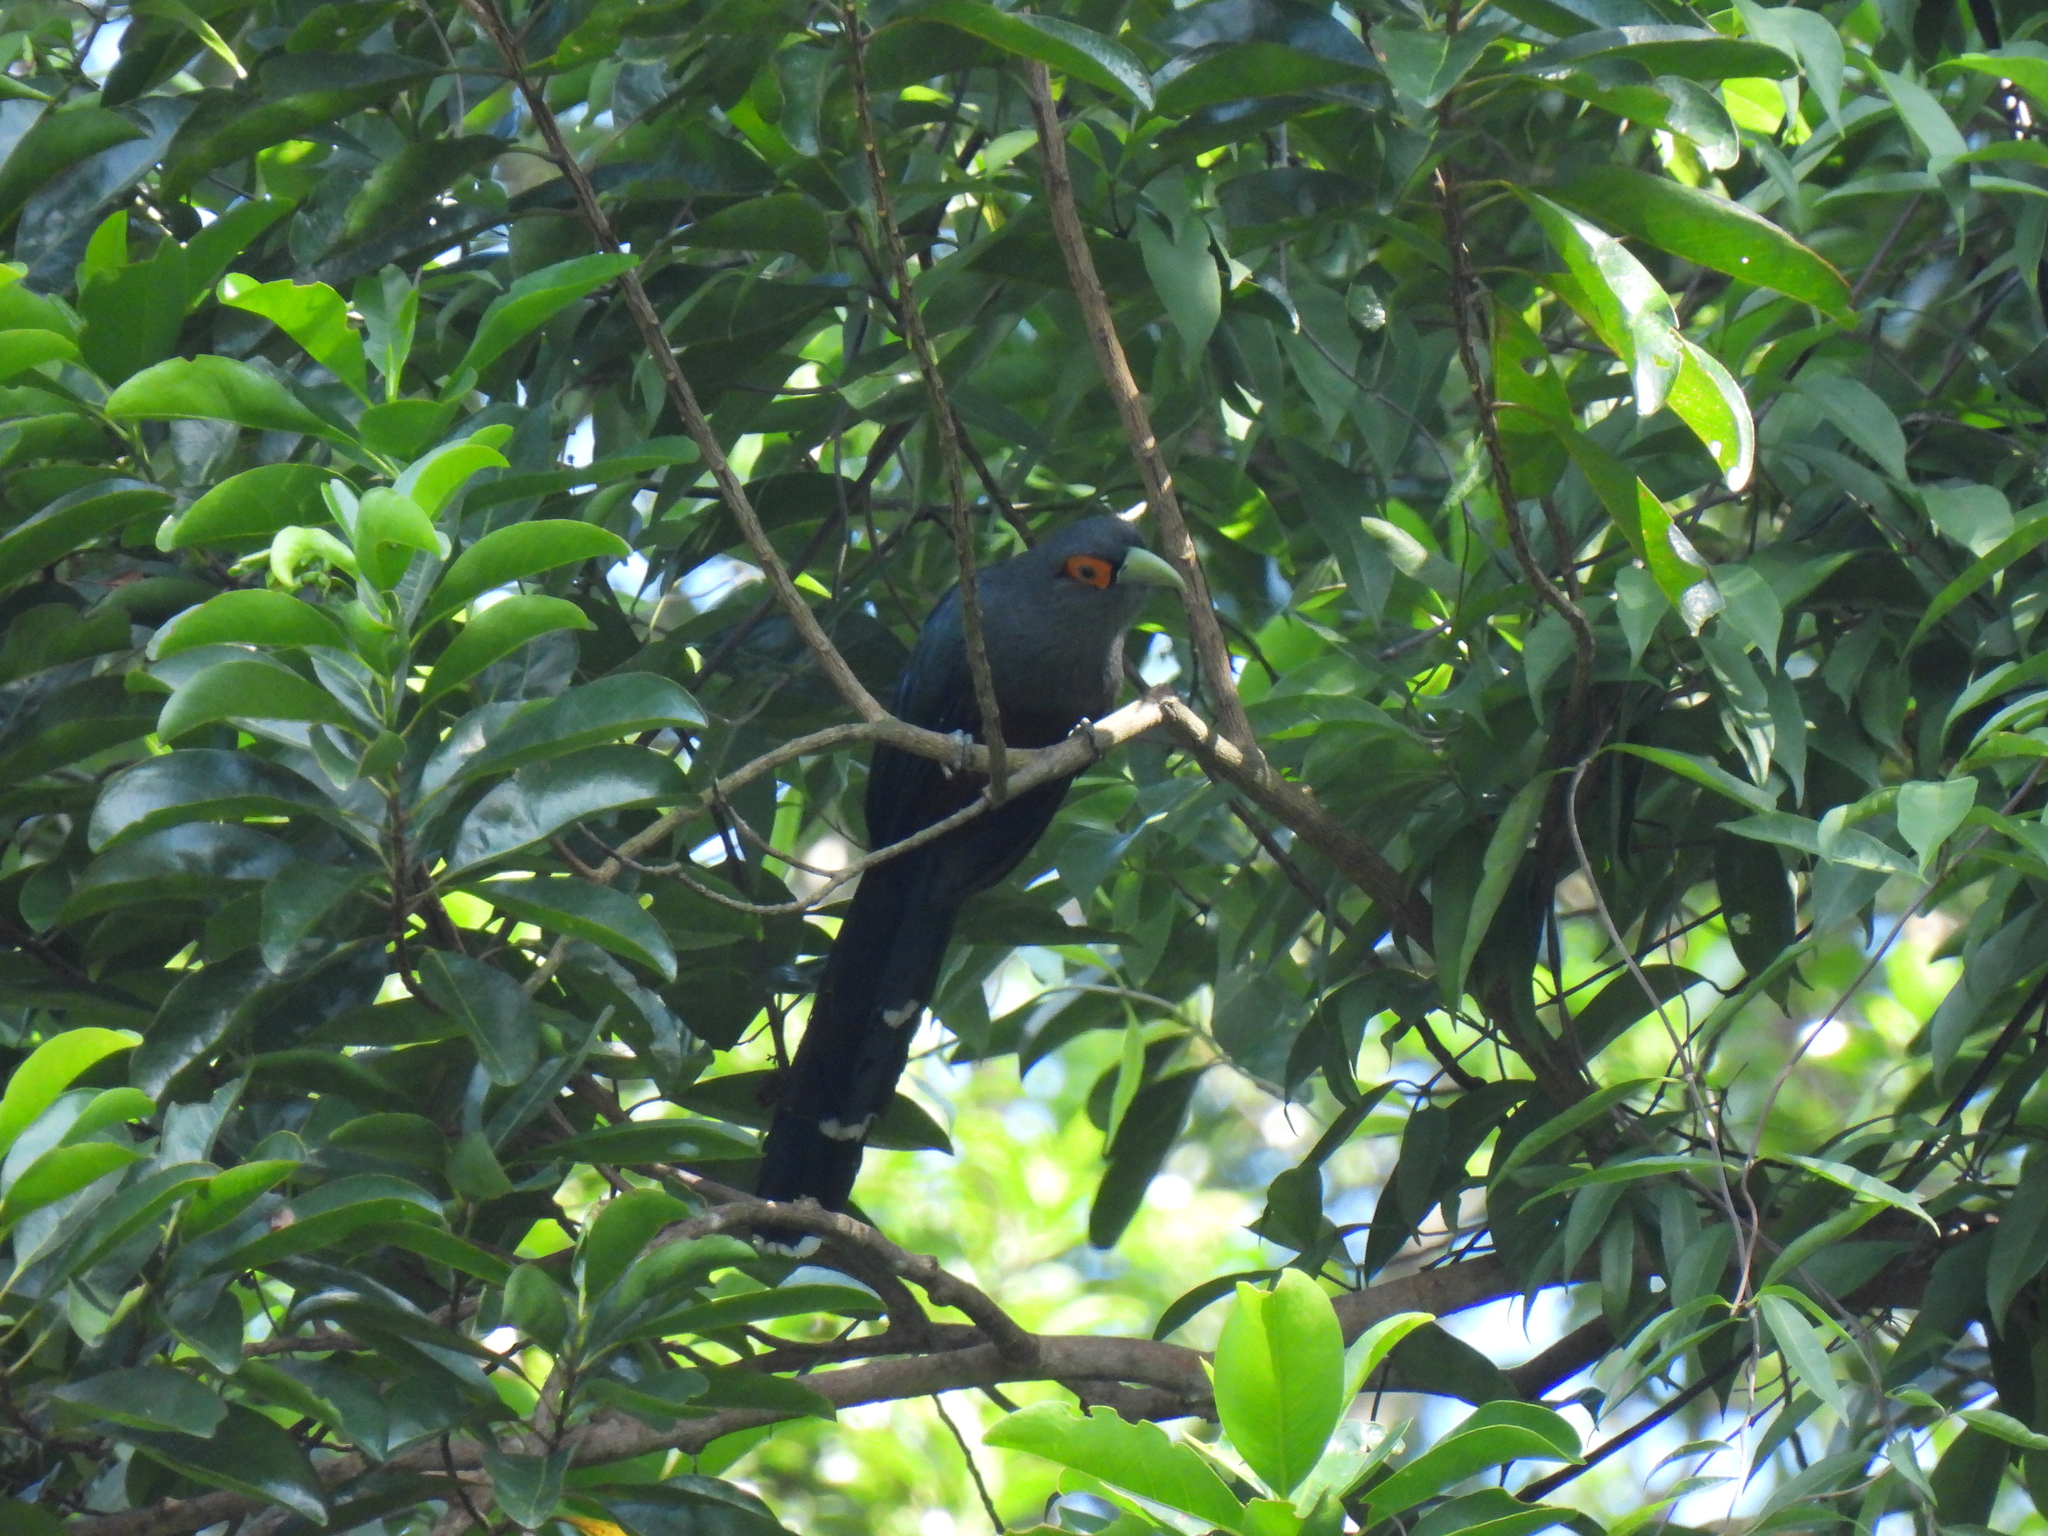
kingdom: Animalia
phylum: Chordata
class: Aves
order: Cuculiformes
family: Cuculidae
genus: Rhopodytes
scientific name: Rhopodytes sumatranus
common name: Rufous-bellied malcoha
